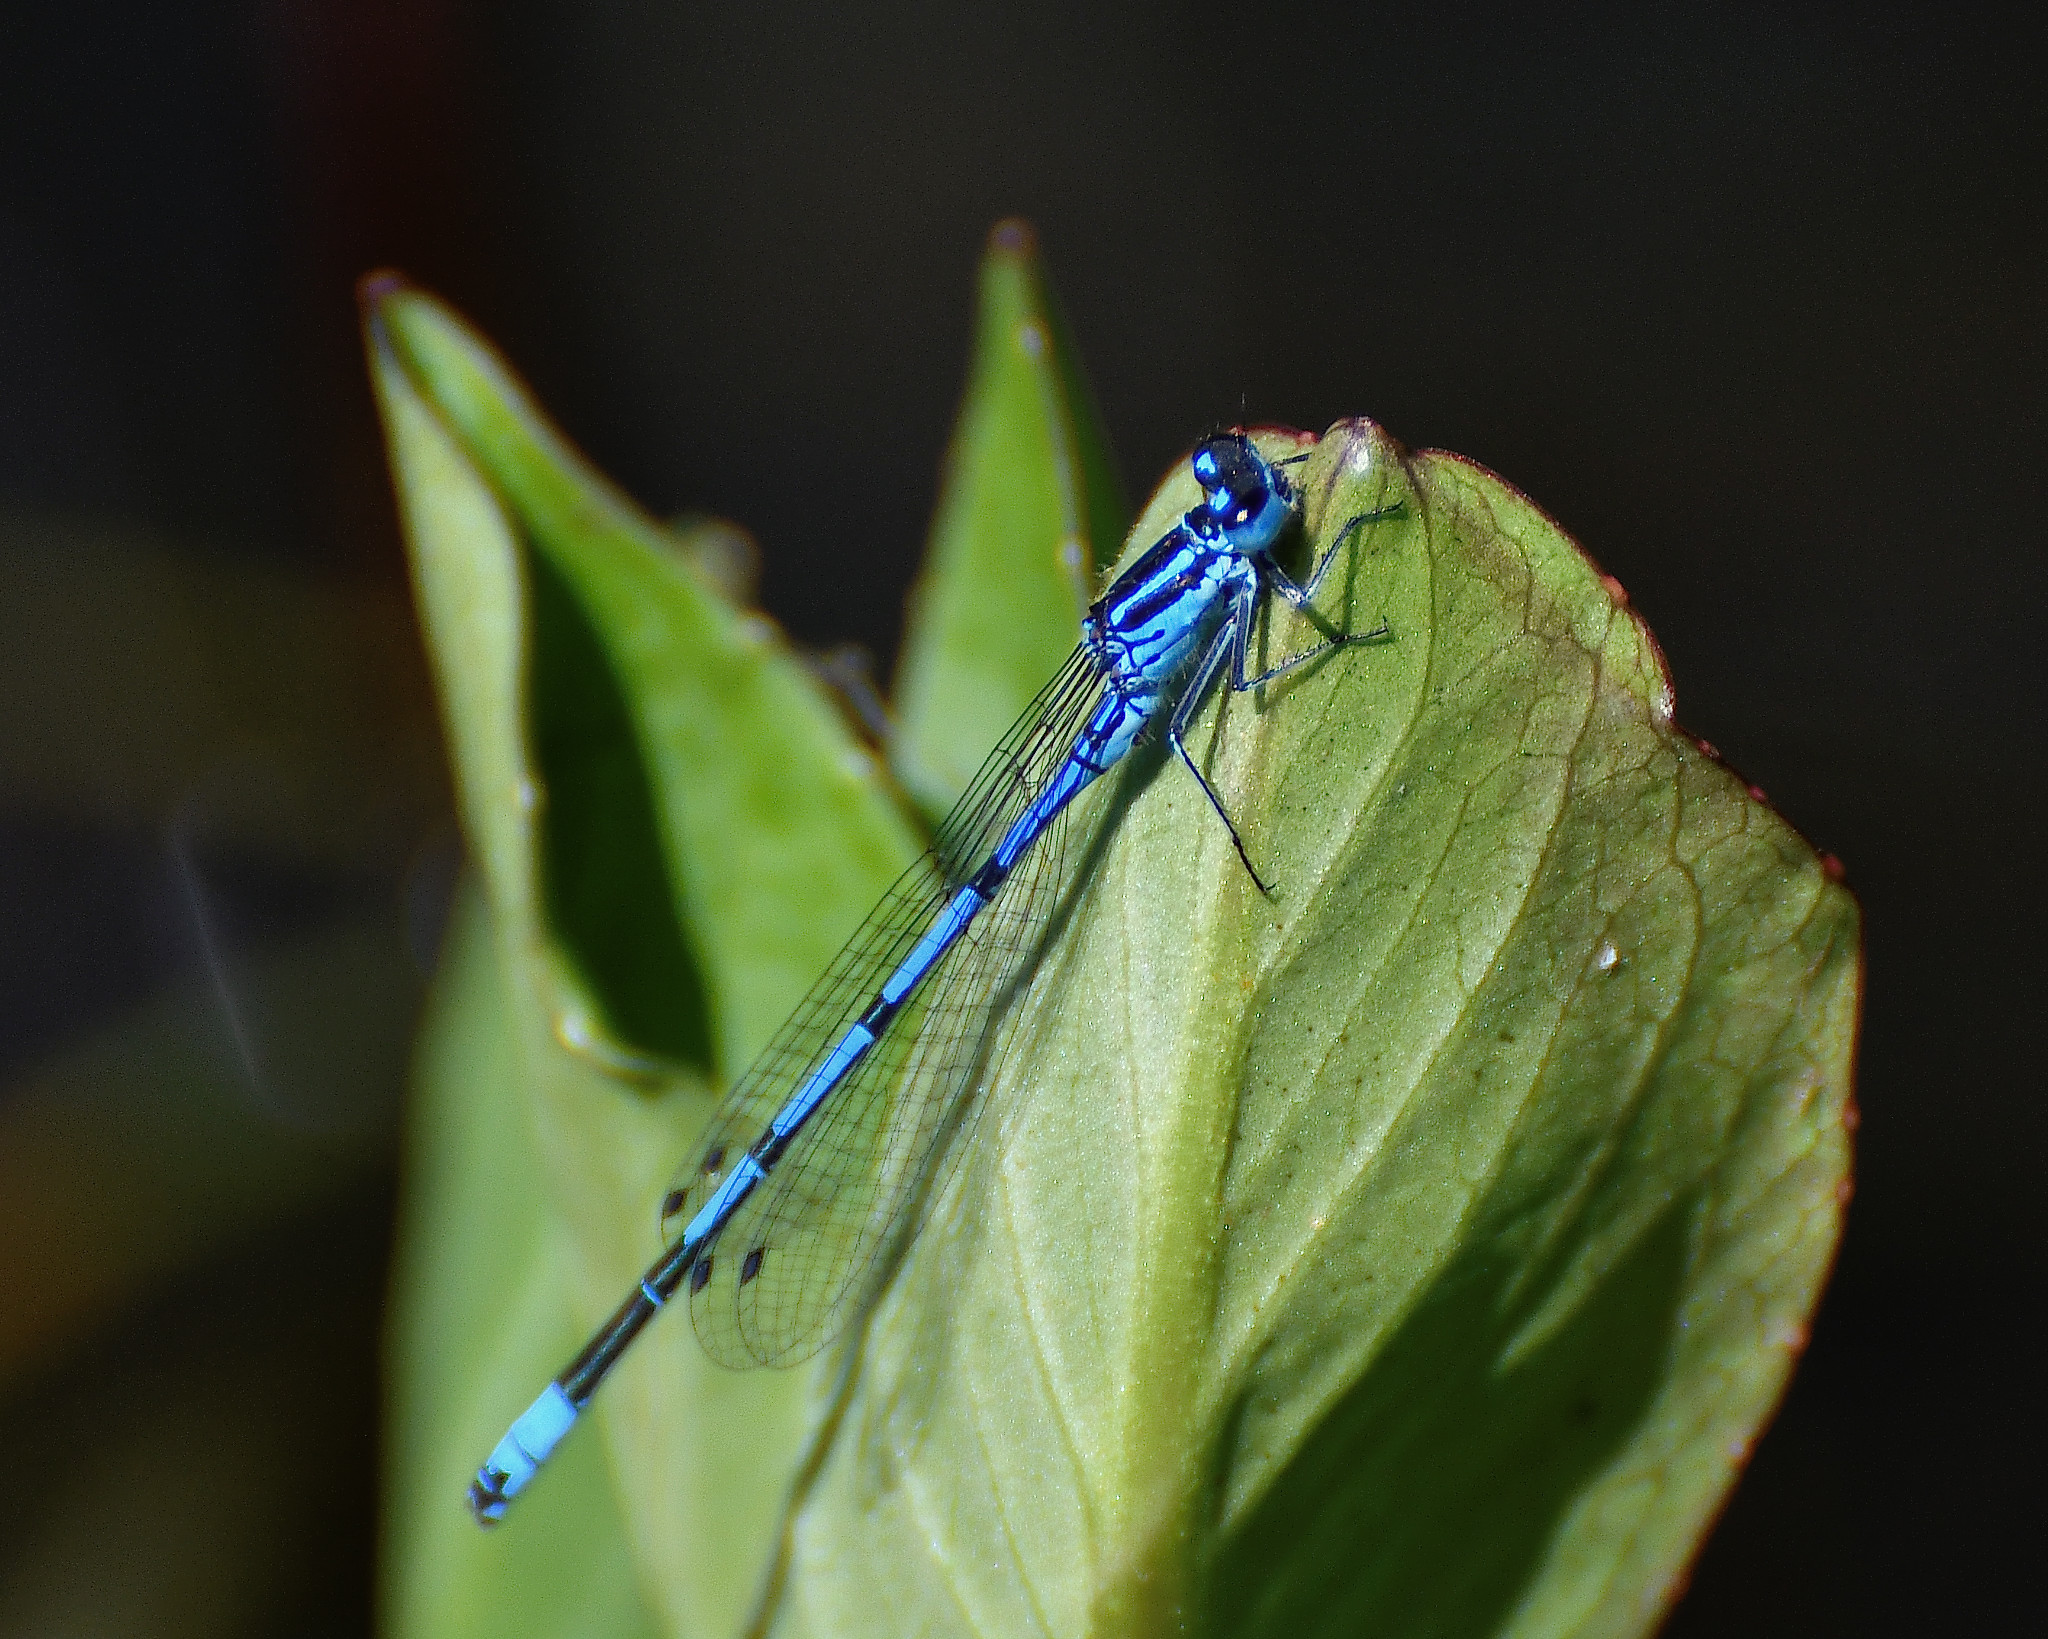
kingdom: Animalia
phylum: Arthropoda
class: Insecta
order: Odonata
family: Coenagrionidae
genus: Coenagrion
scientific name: Coenagrion puella
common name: Azure damselfly
